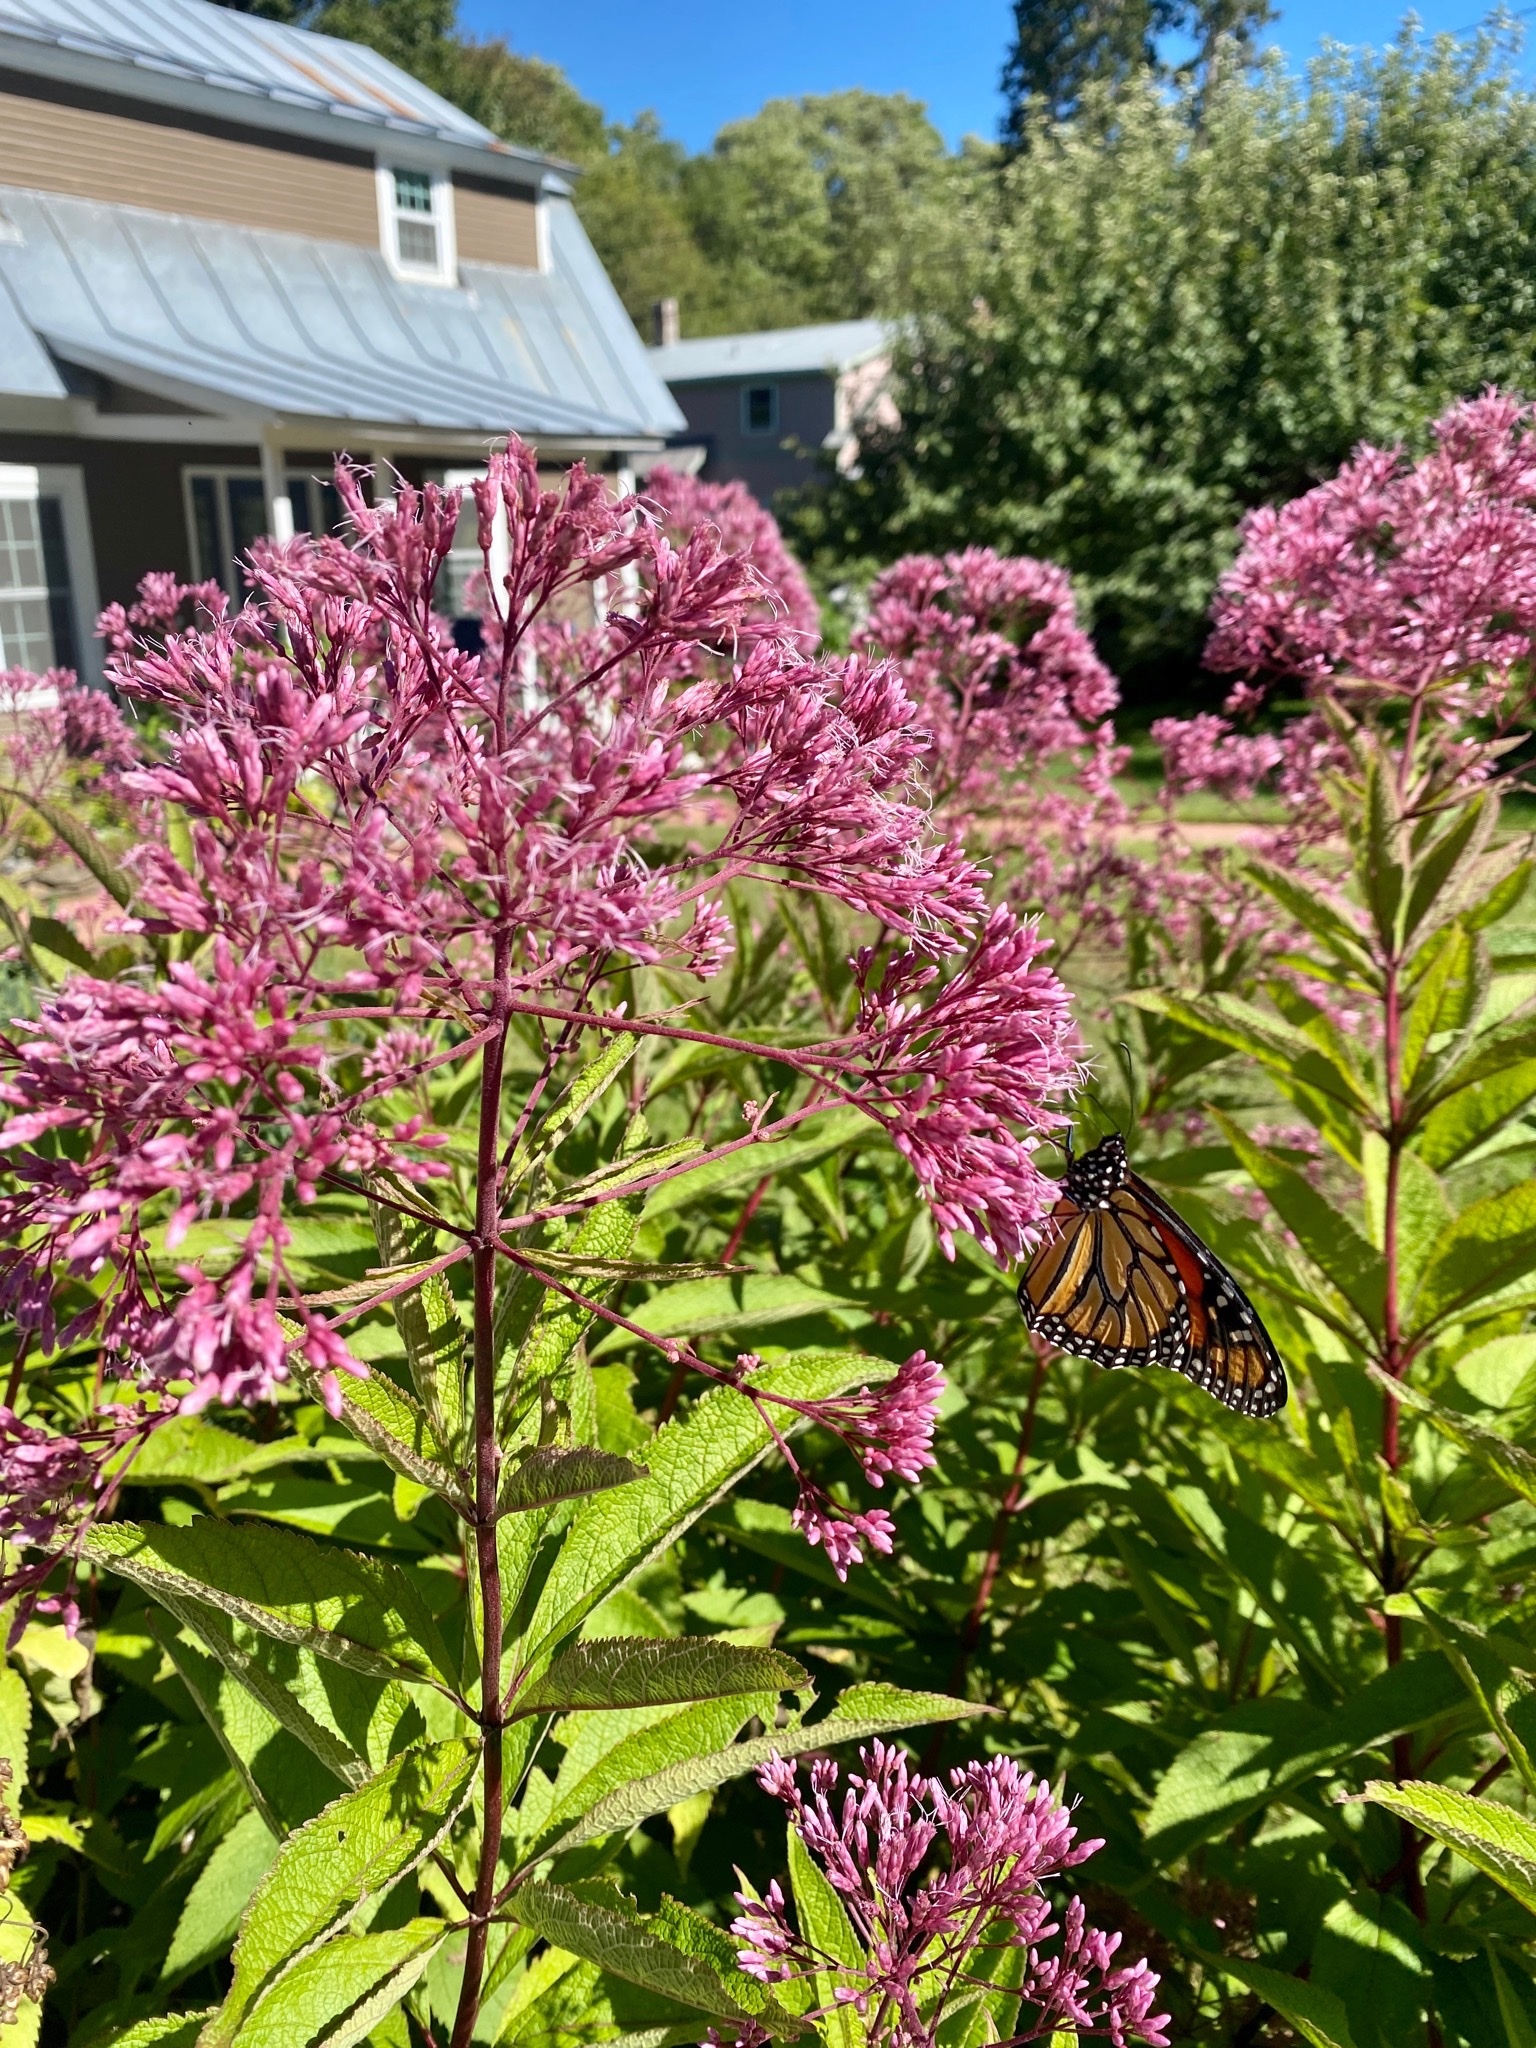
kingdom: Animalia
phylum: Arthropoda
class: Insecta
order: Lepidoptera
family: Nymphalidae
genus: Danaus
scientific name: Danaus plexippus
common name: Monarch
